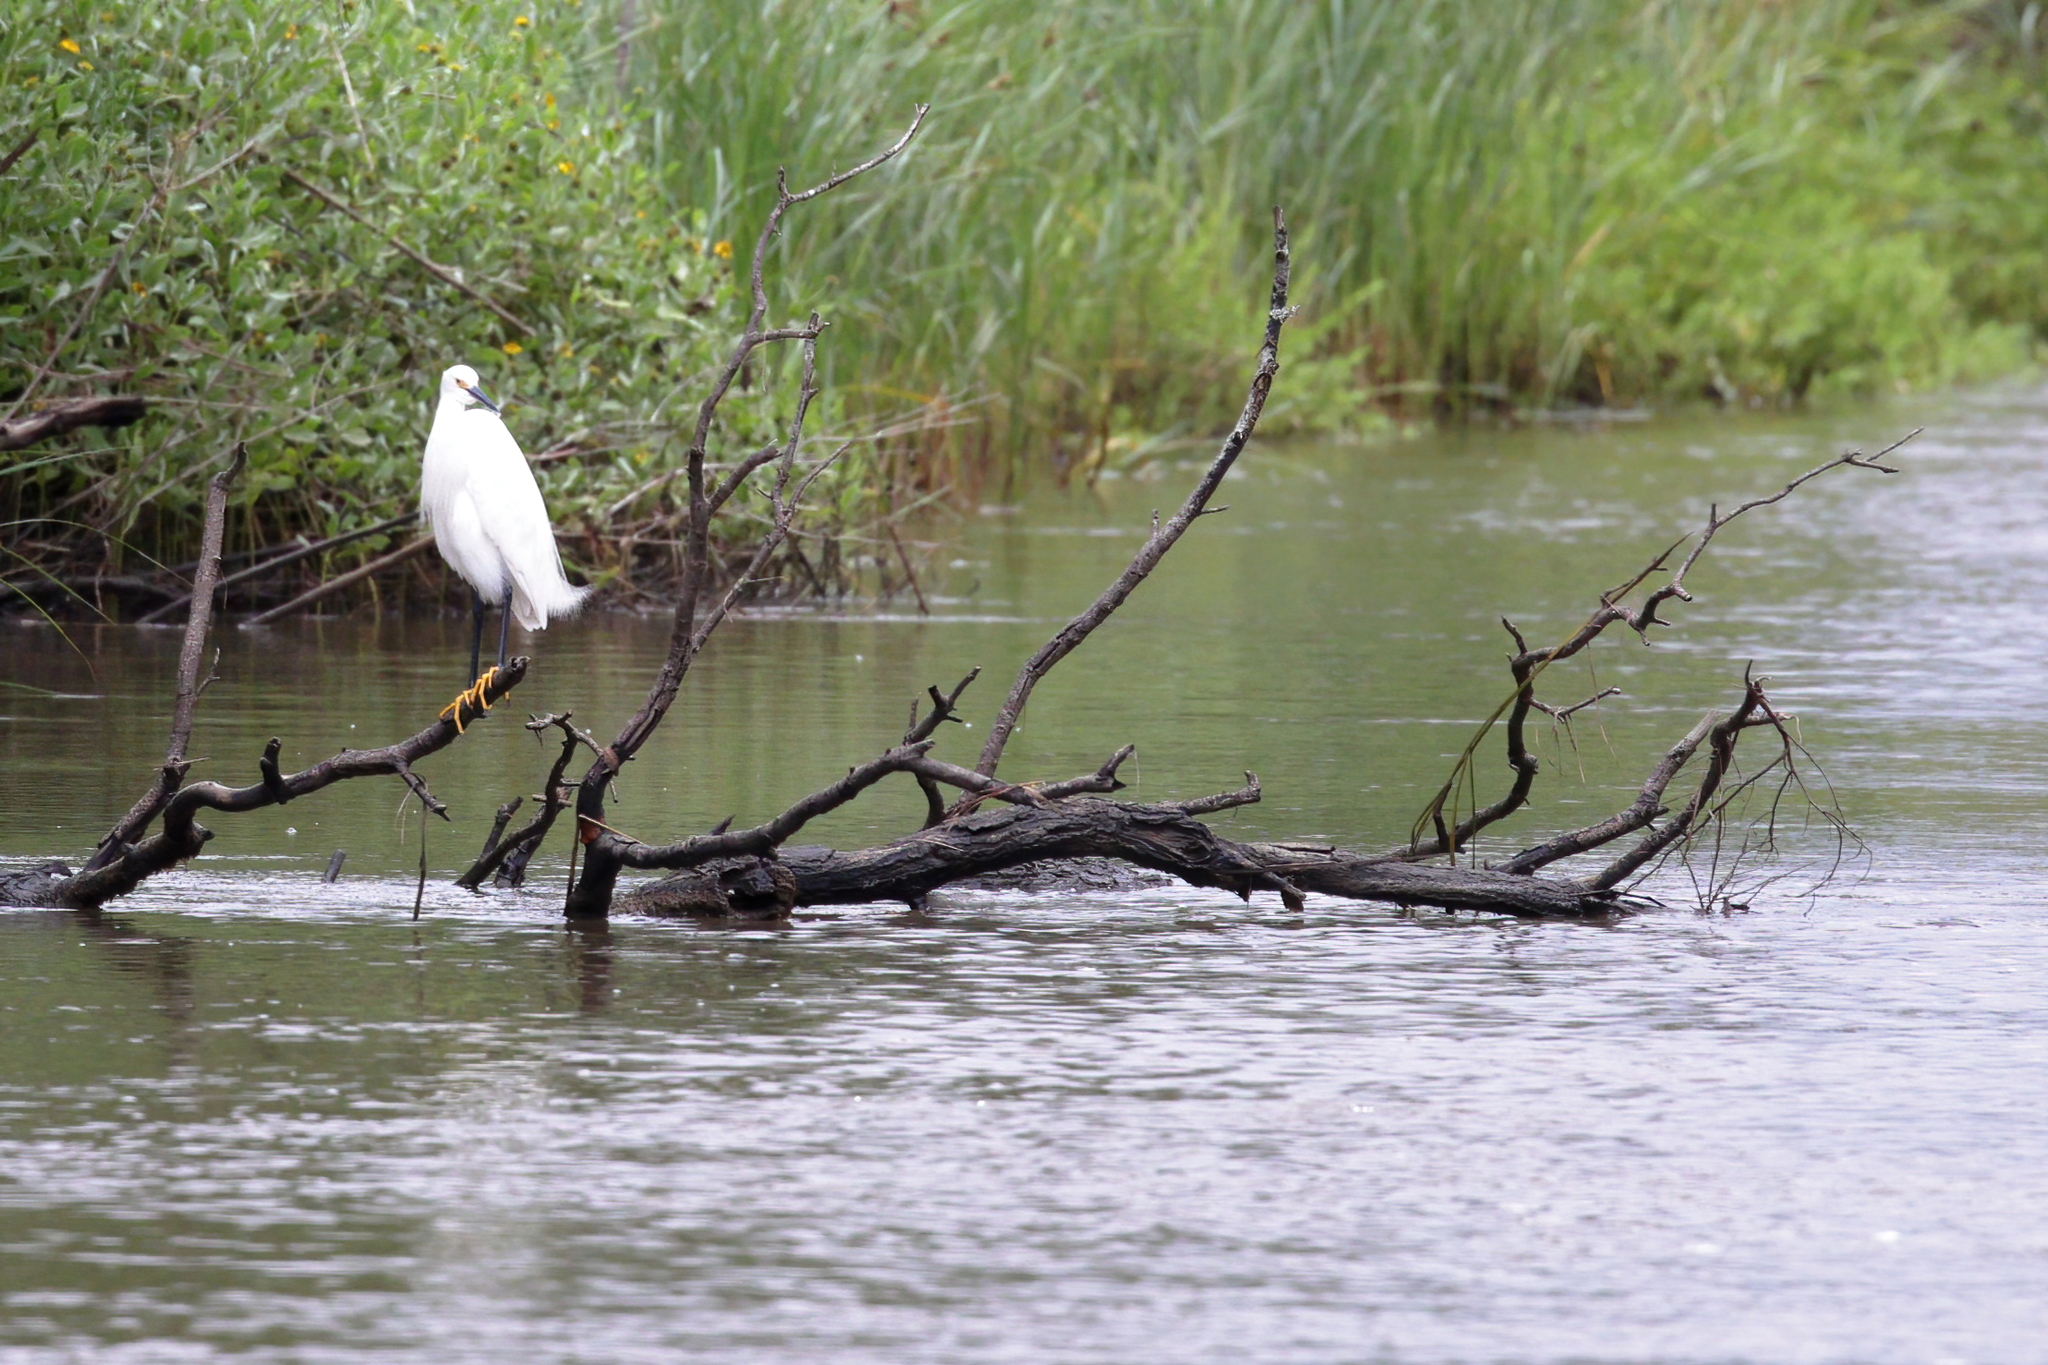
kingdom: Animalia
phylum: Chordata
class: Aves
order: Pelecaniformes
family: Ardeidae
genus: Egretta
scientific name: Egretta thula
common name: Snowy egret
